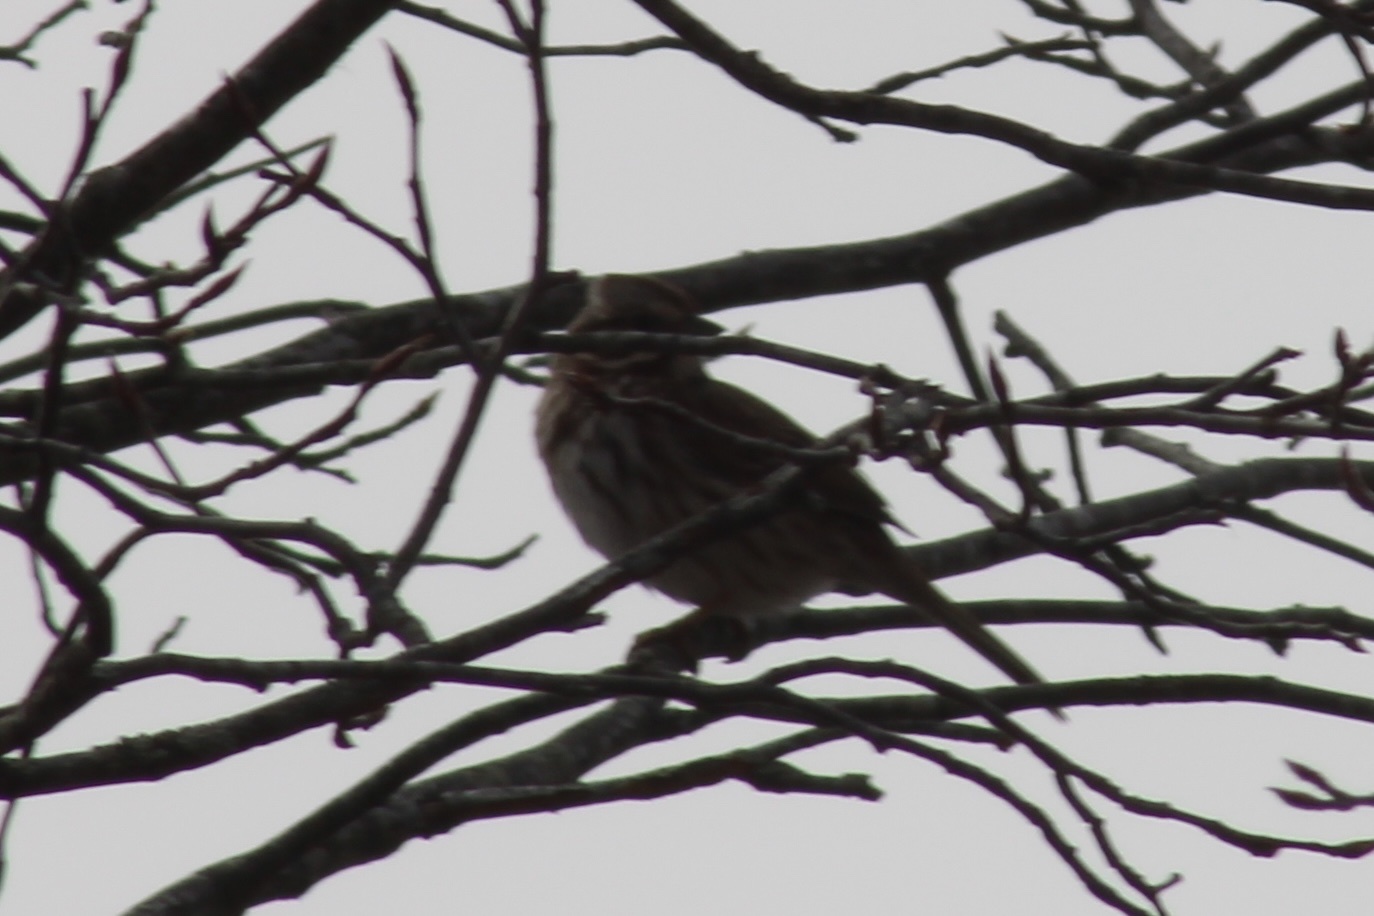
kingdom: Animalia
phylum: Chordata
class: Aves
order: Passeriformes
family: Passerellidae
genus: Melospiza
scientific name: Melospiza melodia
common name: Song sparrow
